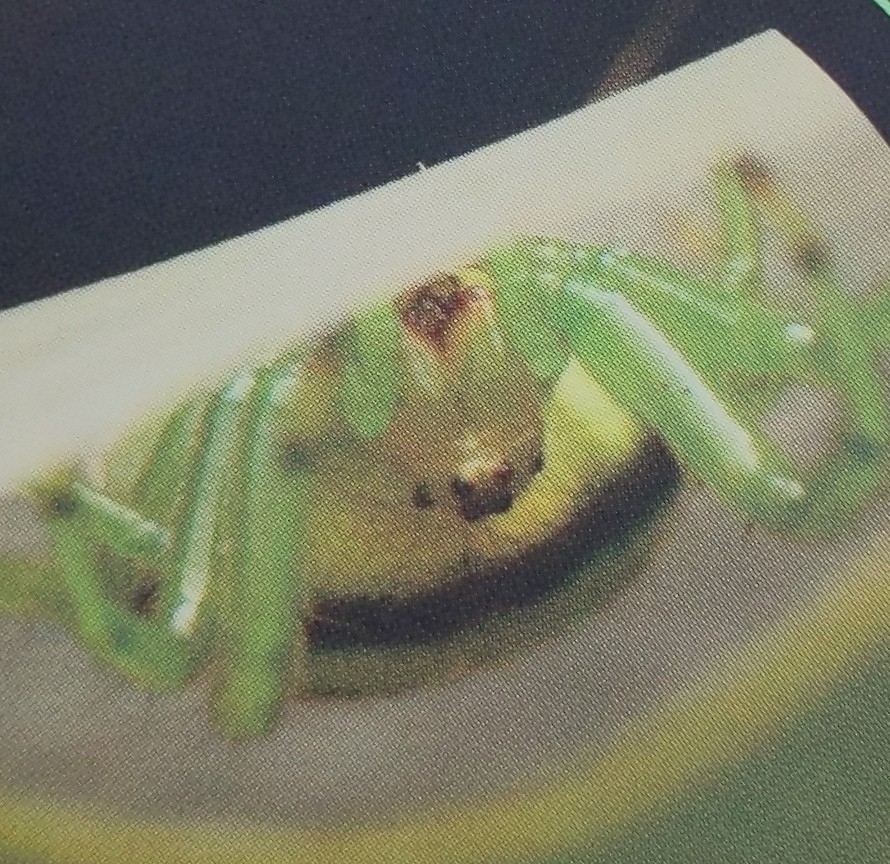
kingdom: Animalia
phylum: Arthropoda
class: Arachnida
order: Araneae
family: Araneidae
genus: Bijoaraneus
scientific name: Bijoaraneus mitificus
